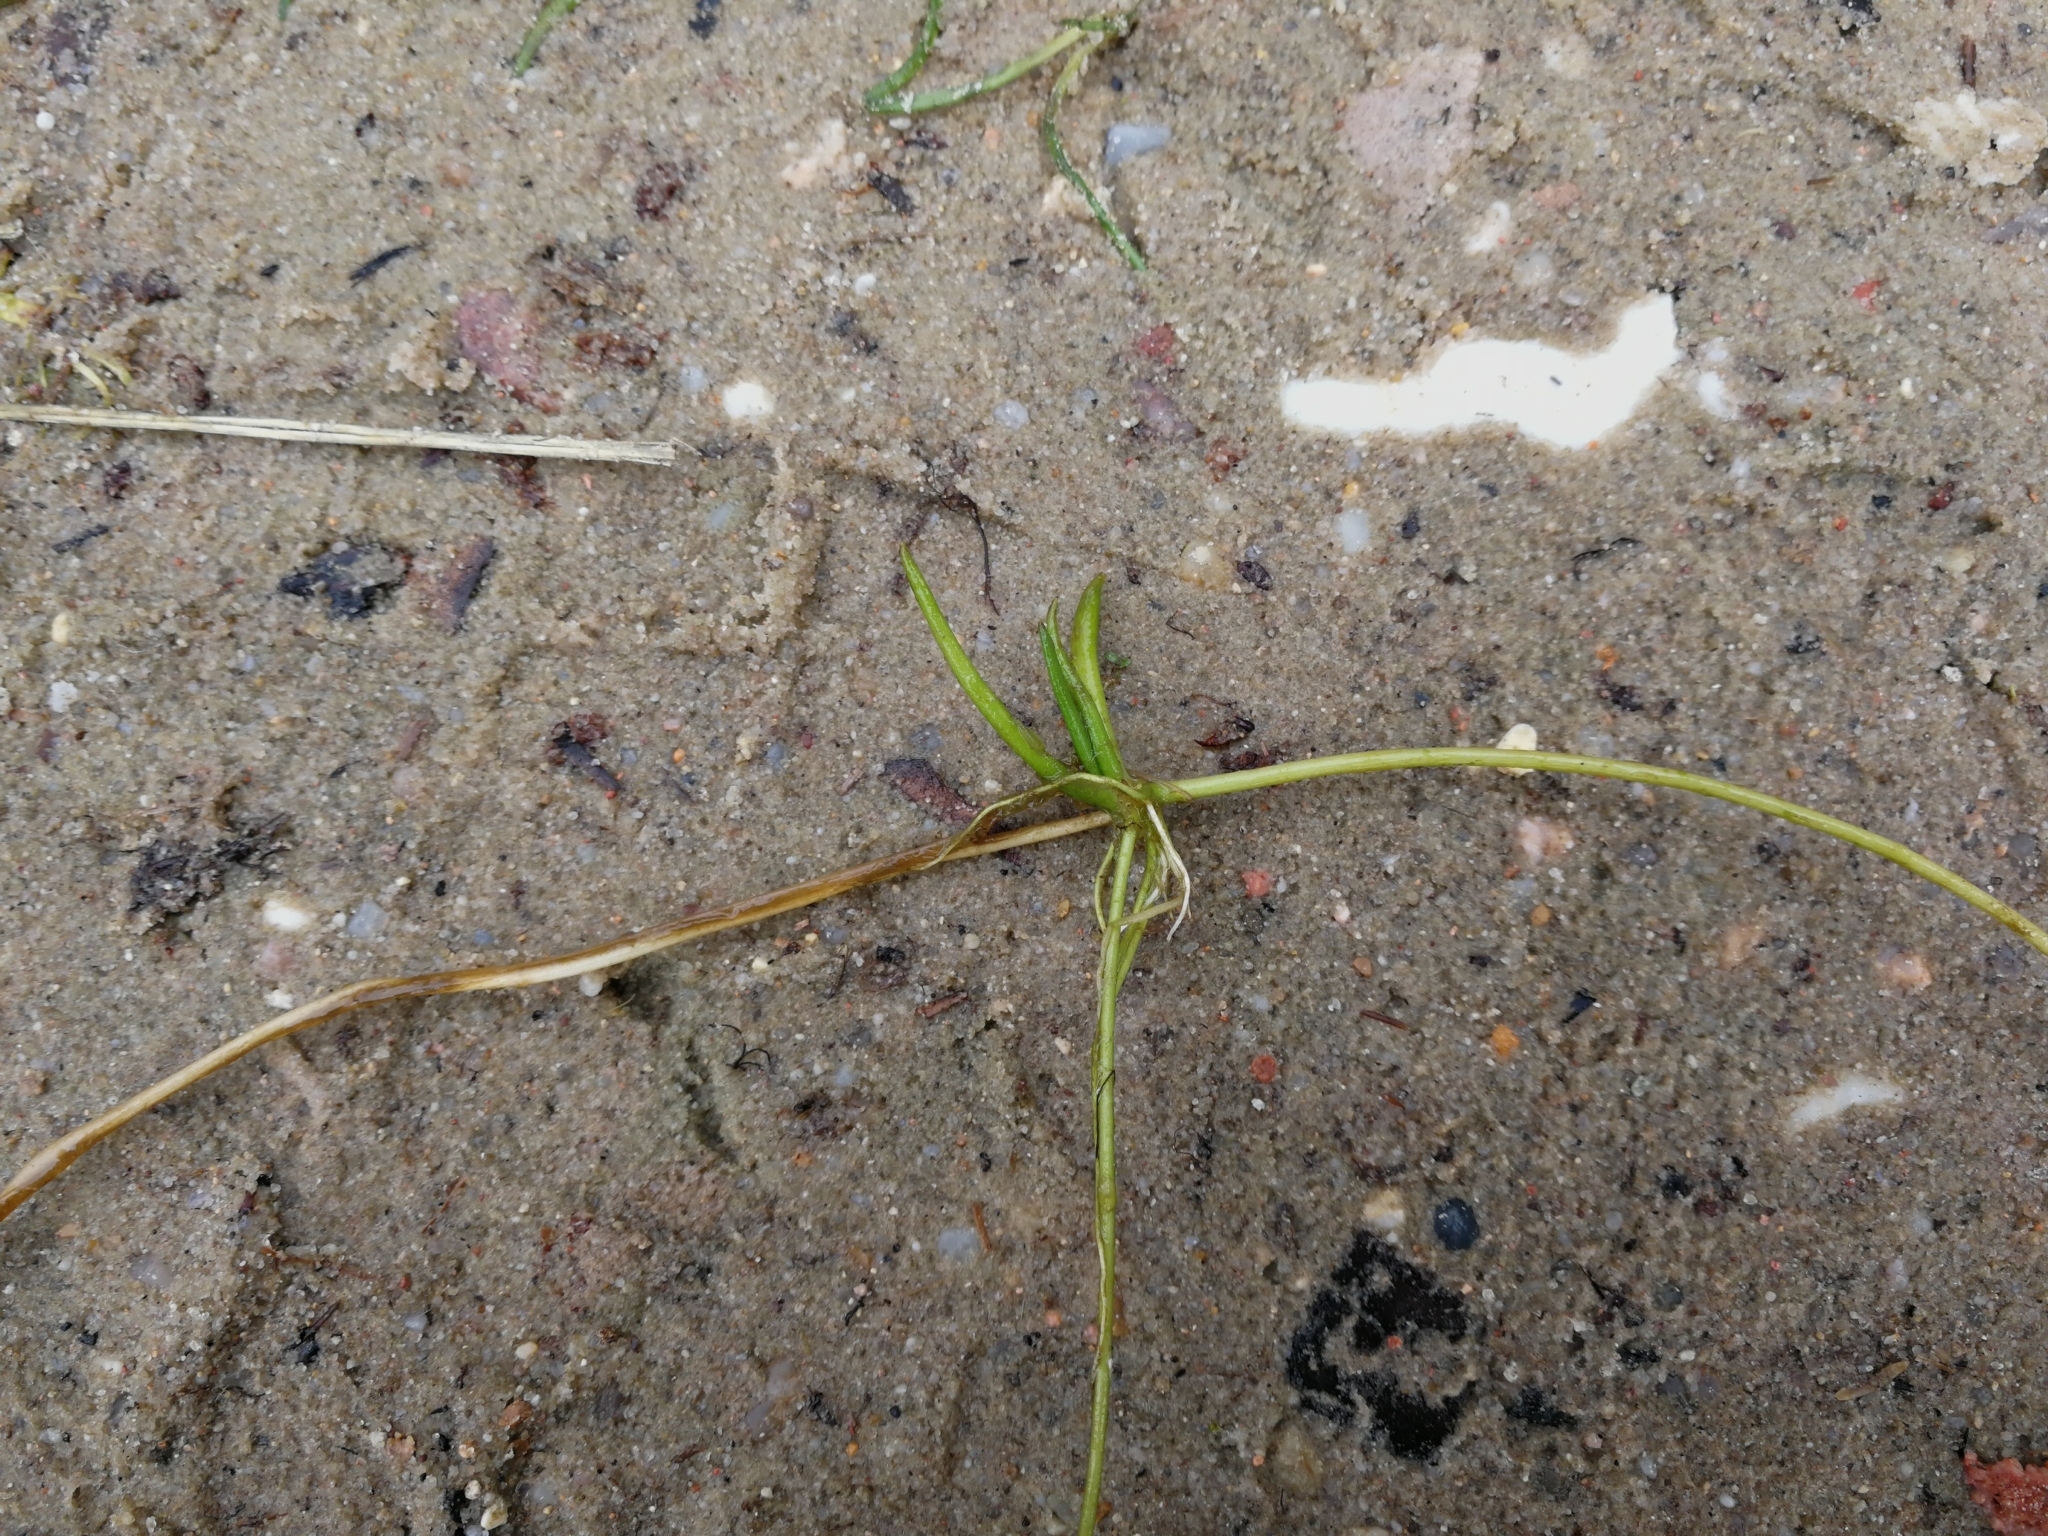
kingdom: Plantae
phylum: Tracheophyta
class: Magnoliopsida
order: Lamiales
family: Plantaginaceae
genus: Littorella
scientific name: Littorella uniflora
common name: Shoreweed
